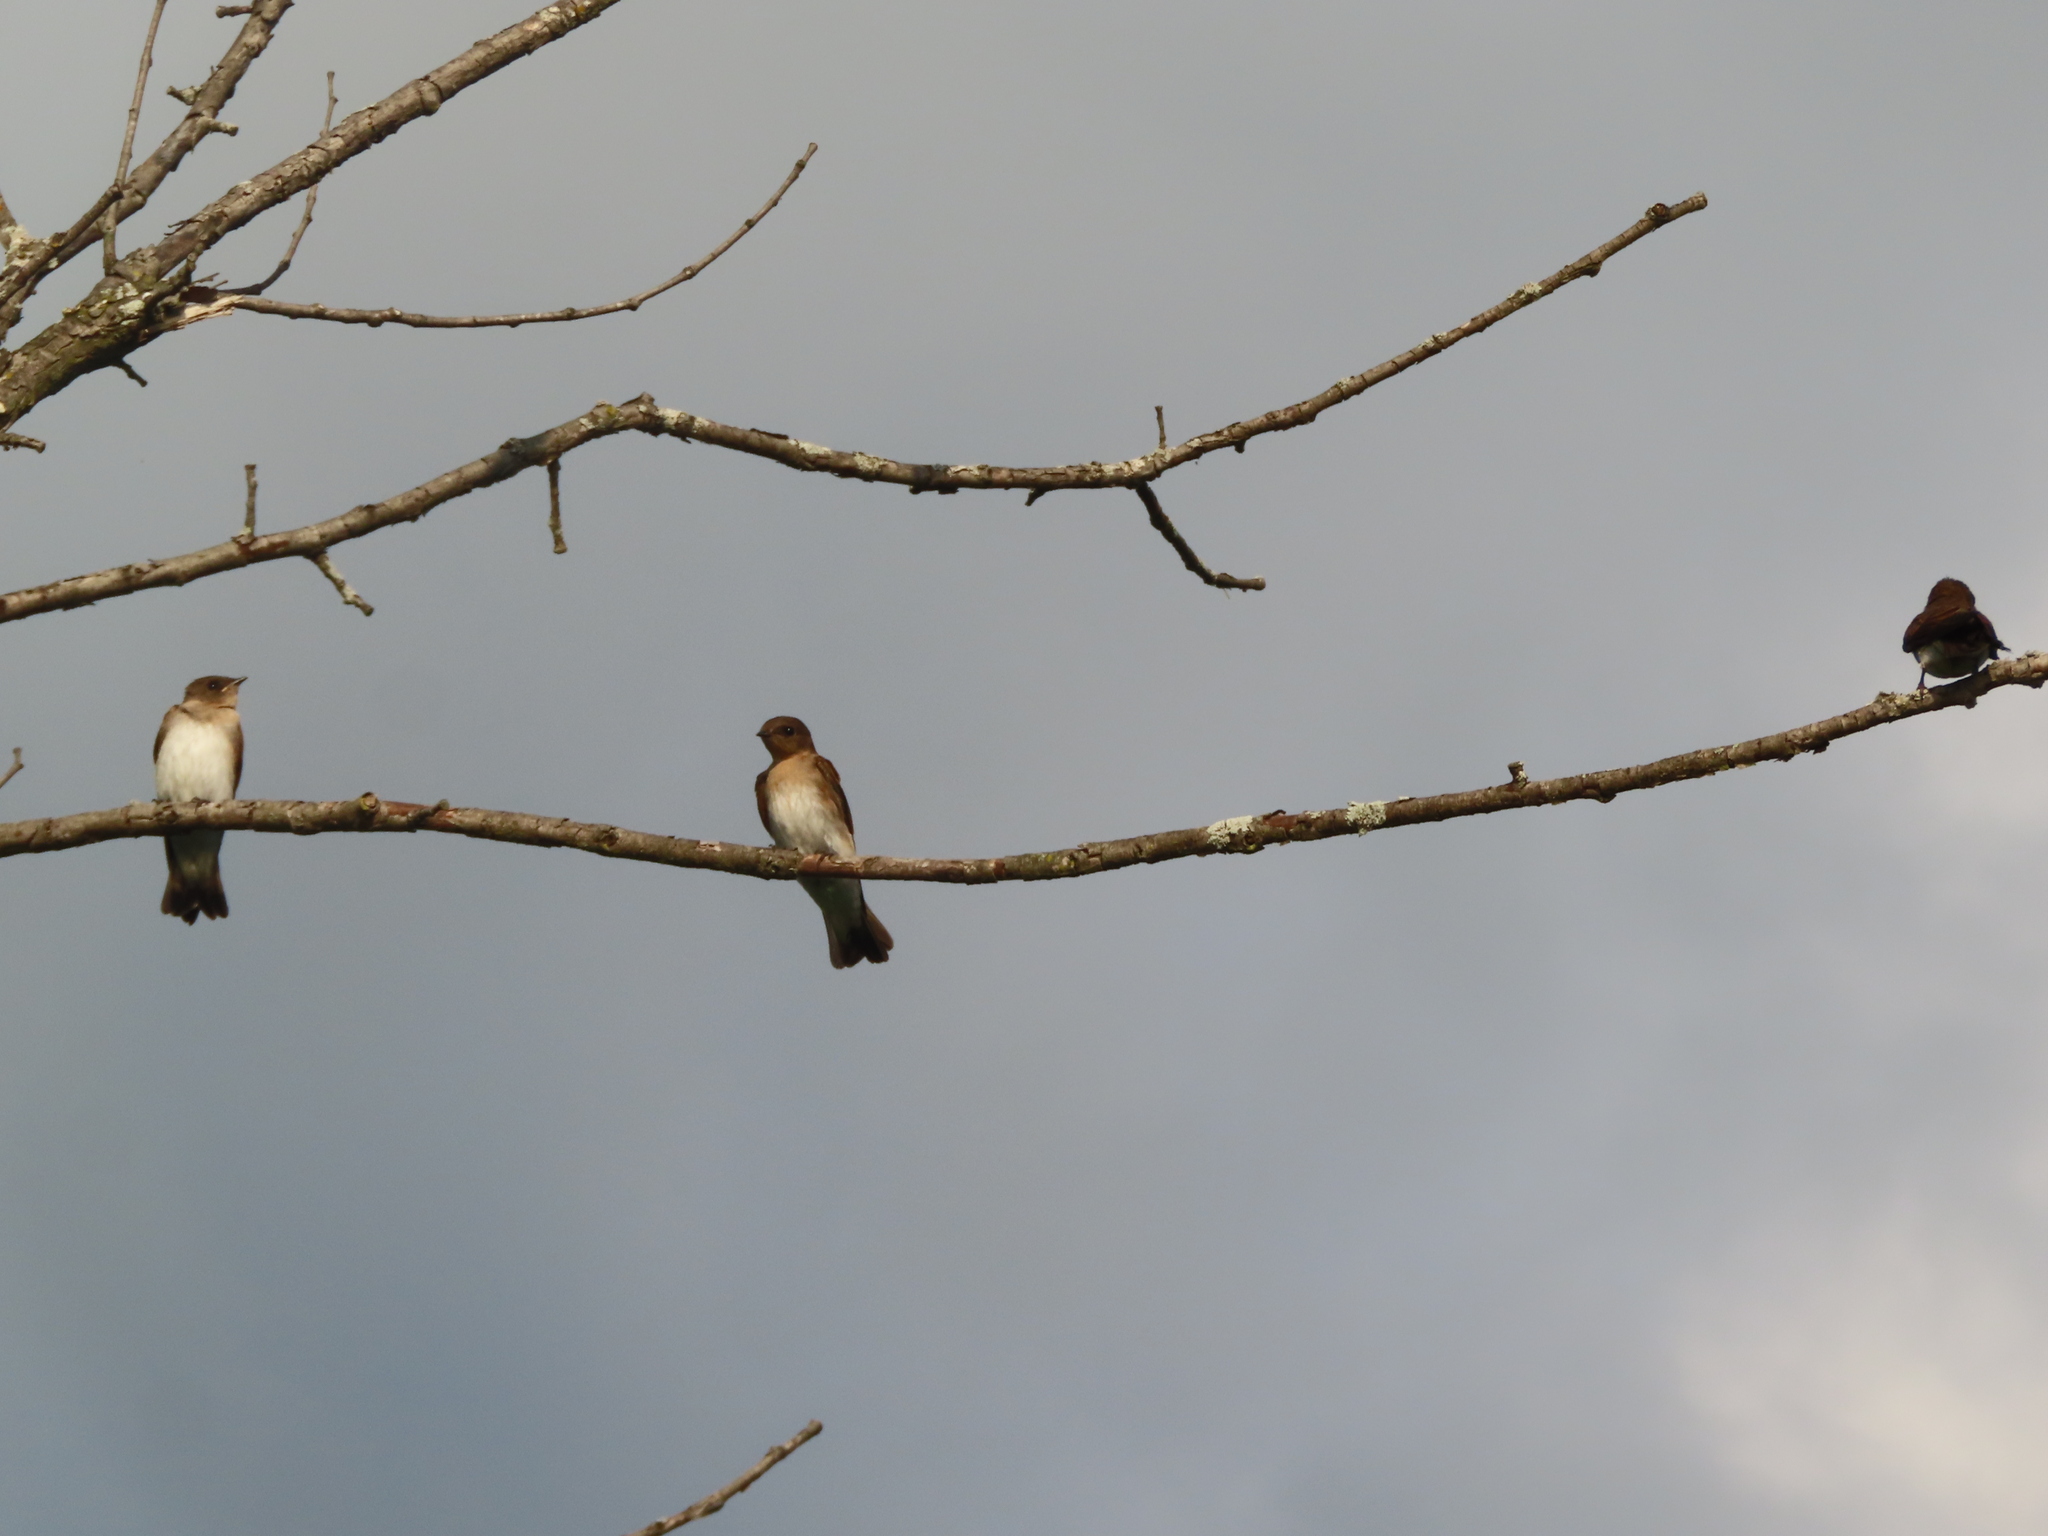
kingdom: Animalia
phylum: Chordata
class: Aves
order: Passeriformes
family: Hirundinidae
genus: Stelgidopteryx
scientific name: Stelgidopteryx serripennis
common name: Northern rough-winged swallow
